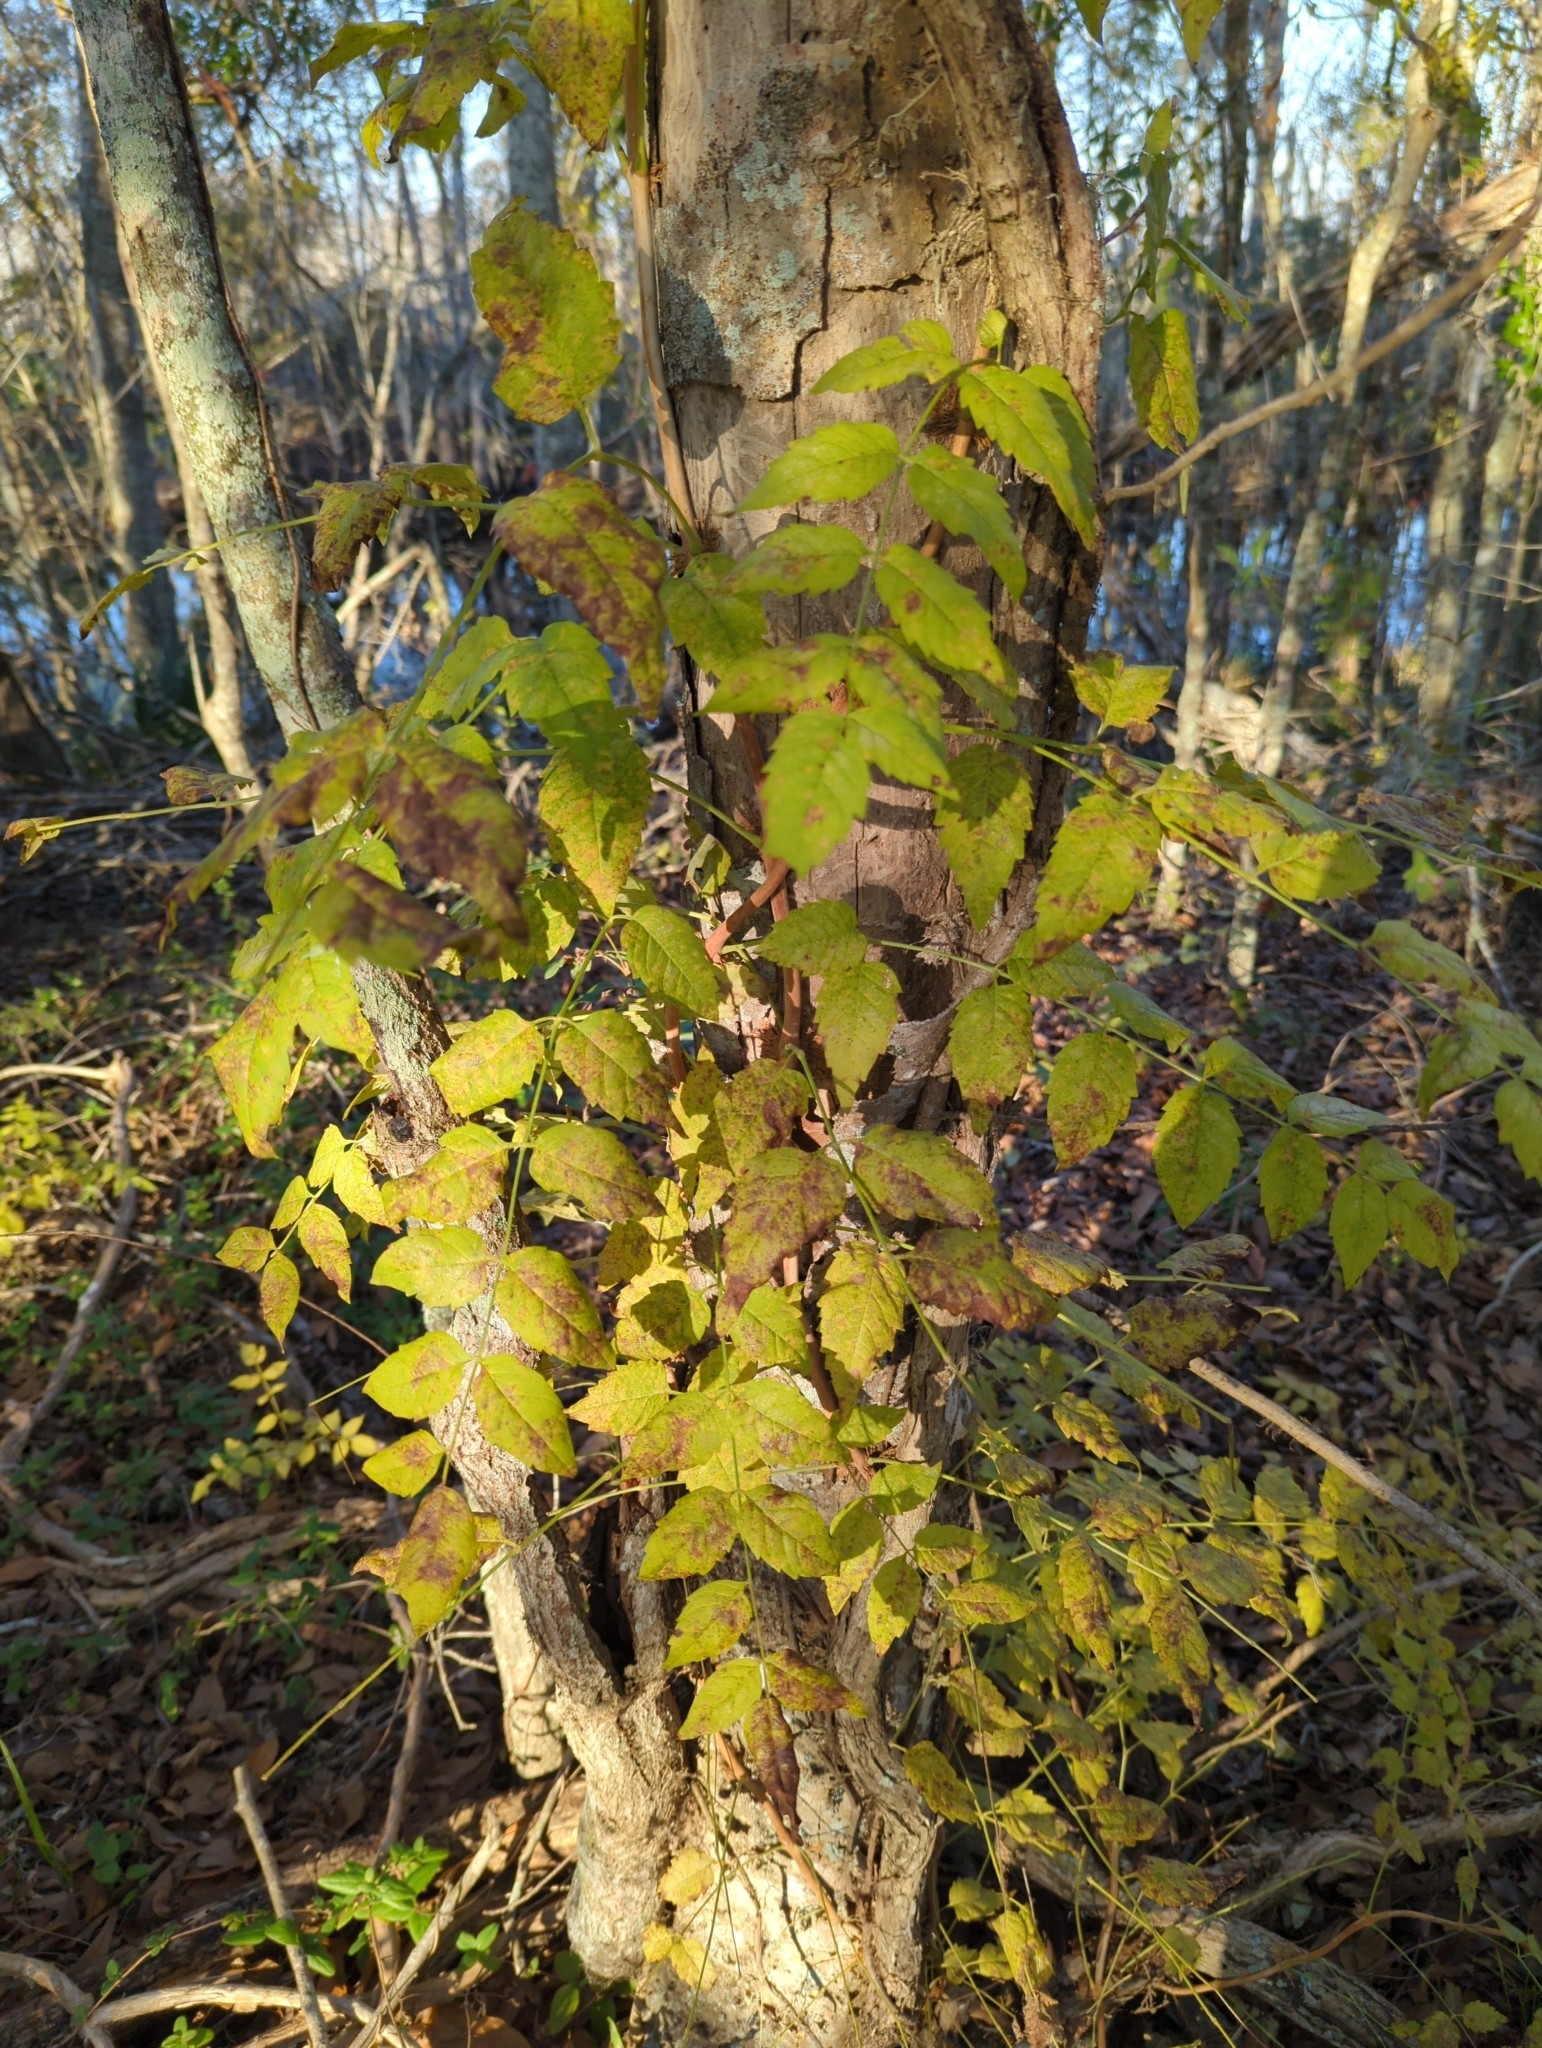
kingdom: Plantae
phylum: Tracheophyta
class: Magnoliopsida
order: Lamiales
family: Bignoniaceae
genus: Campsis
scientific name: Campsis radicans
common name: Trumpet-creeper
